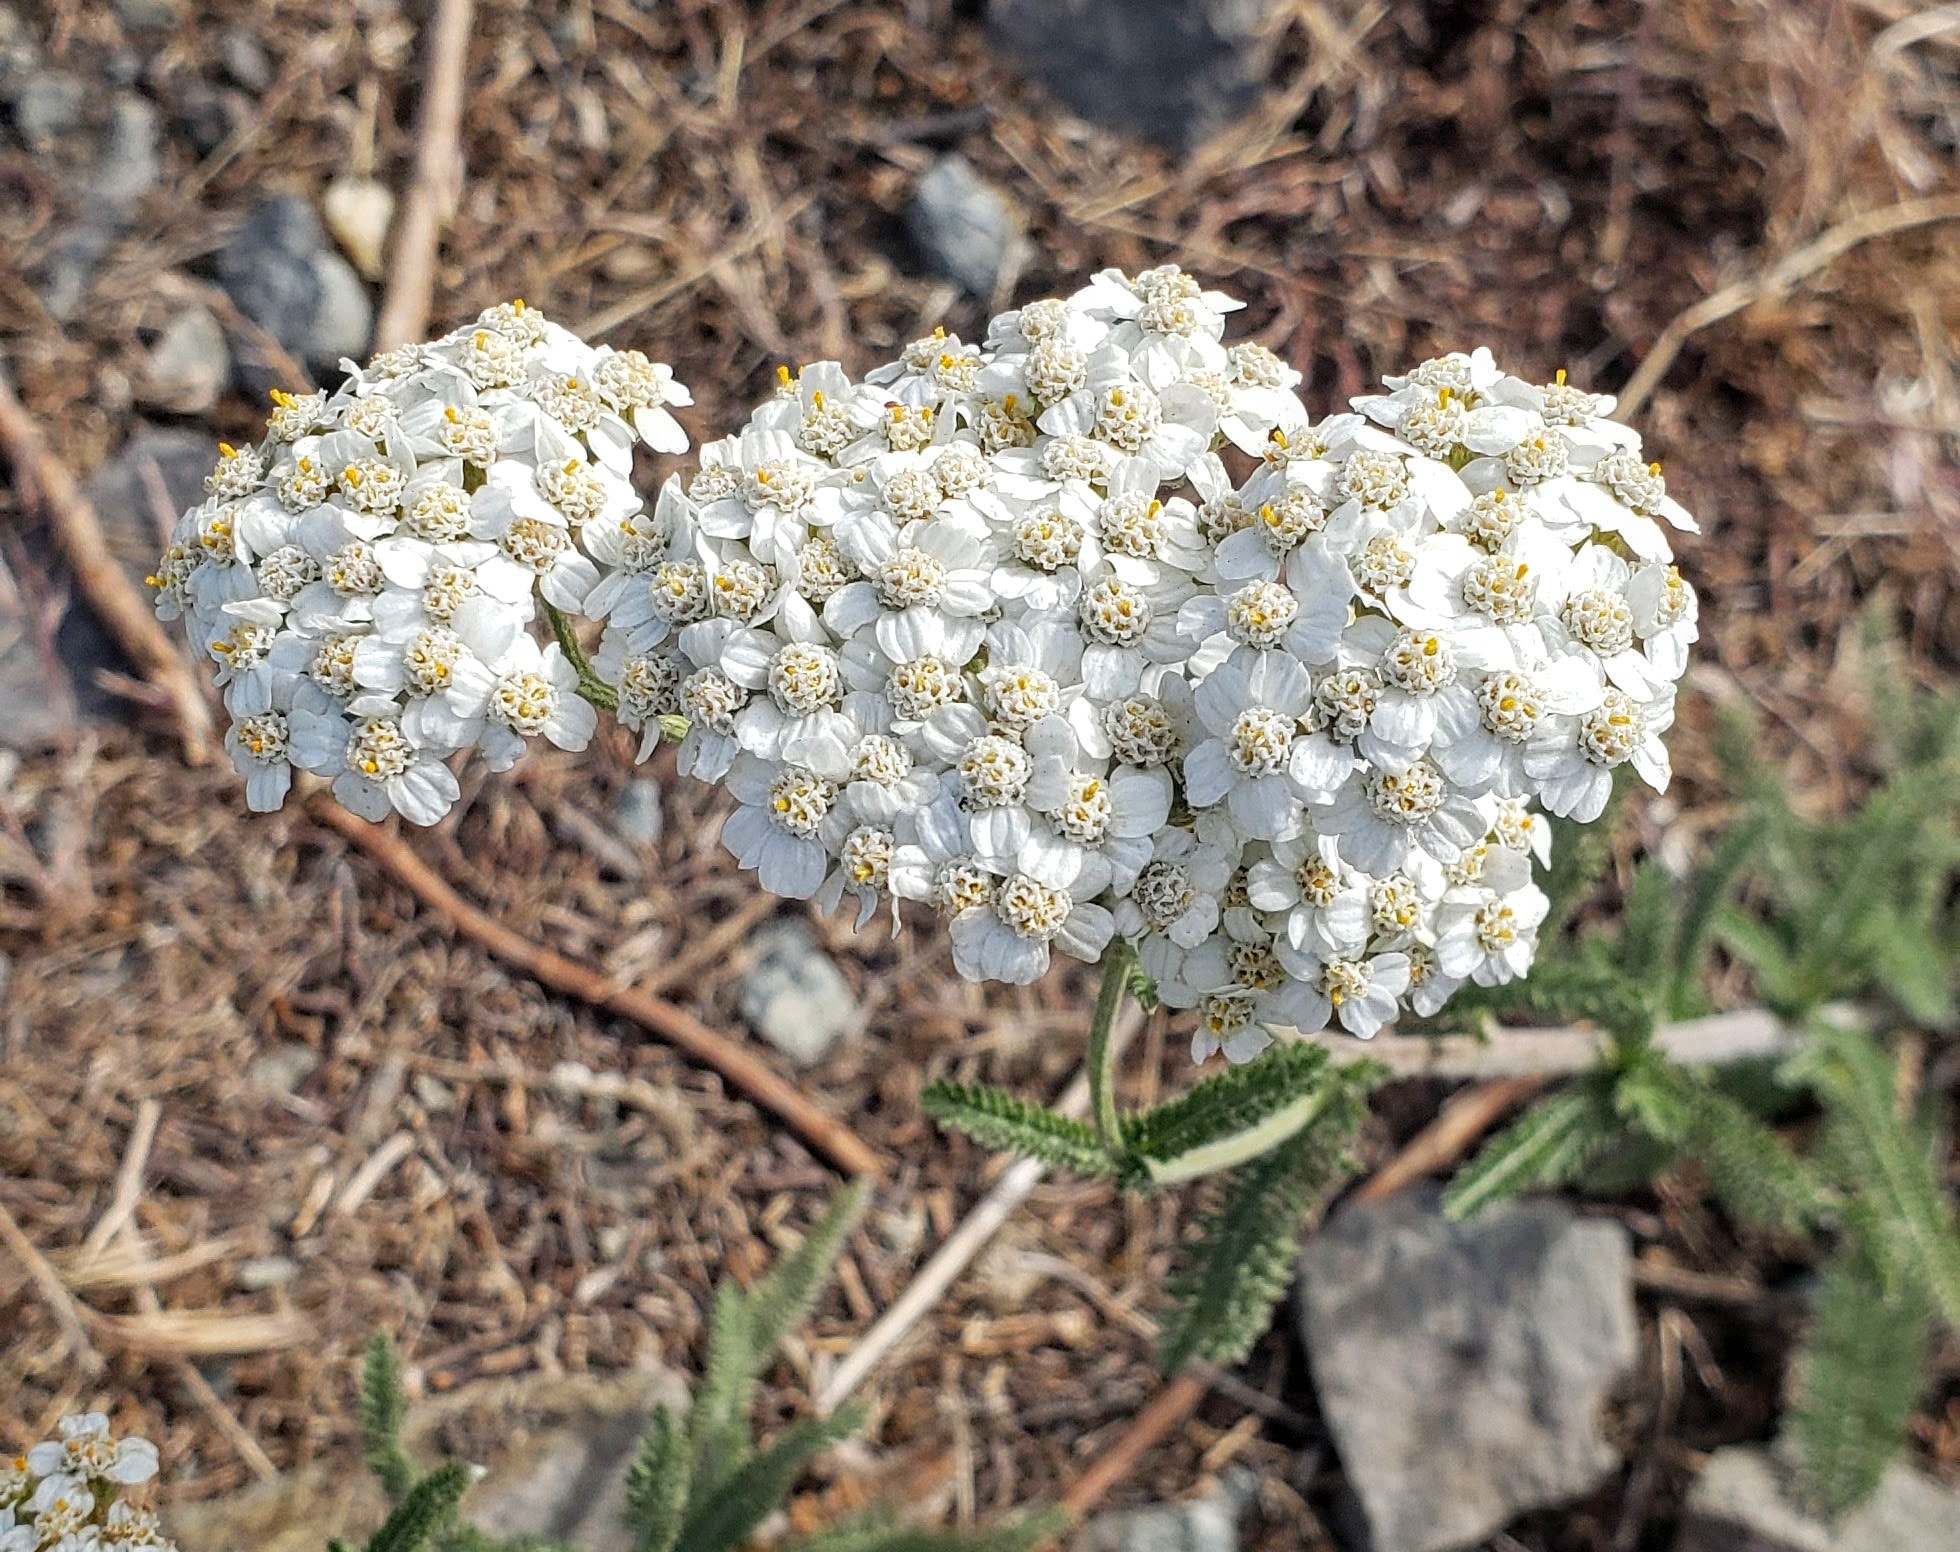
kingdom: Plantae
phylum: Tracheophyta
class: Magnoliopsida
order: Asterales
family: Asteraceae
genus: Achillea
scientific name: Achillea millefolium
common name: Yarrow
